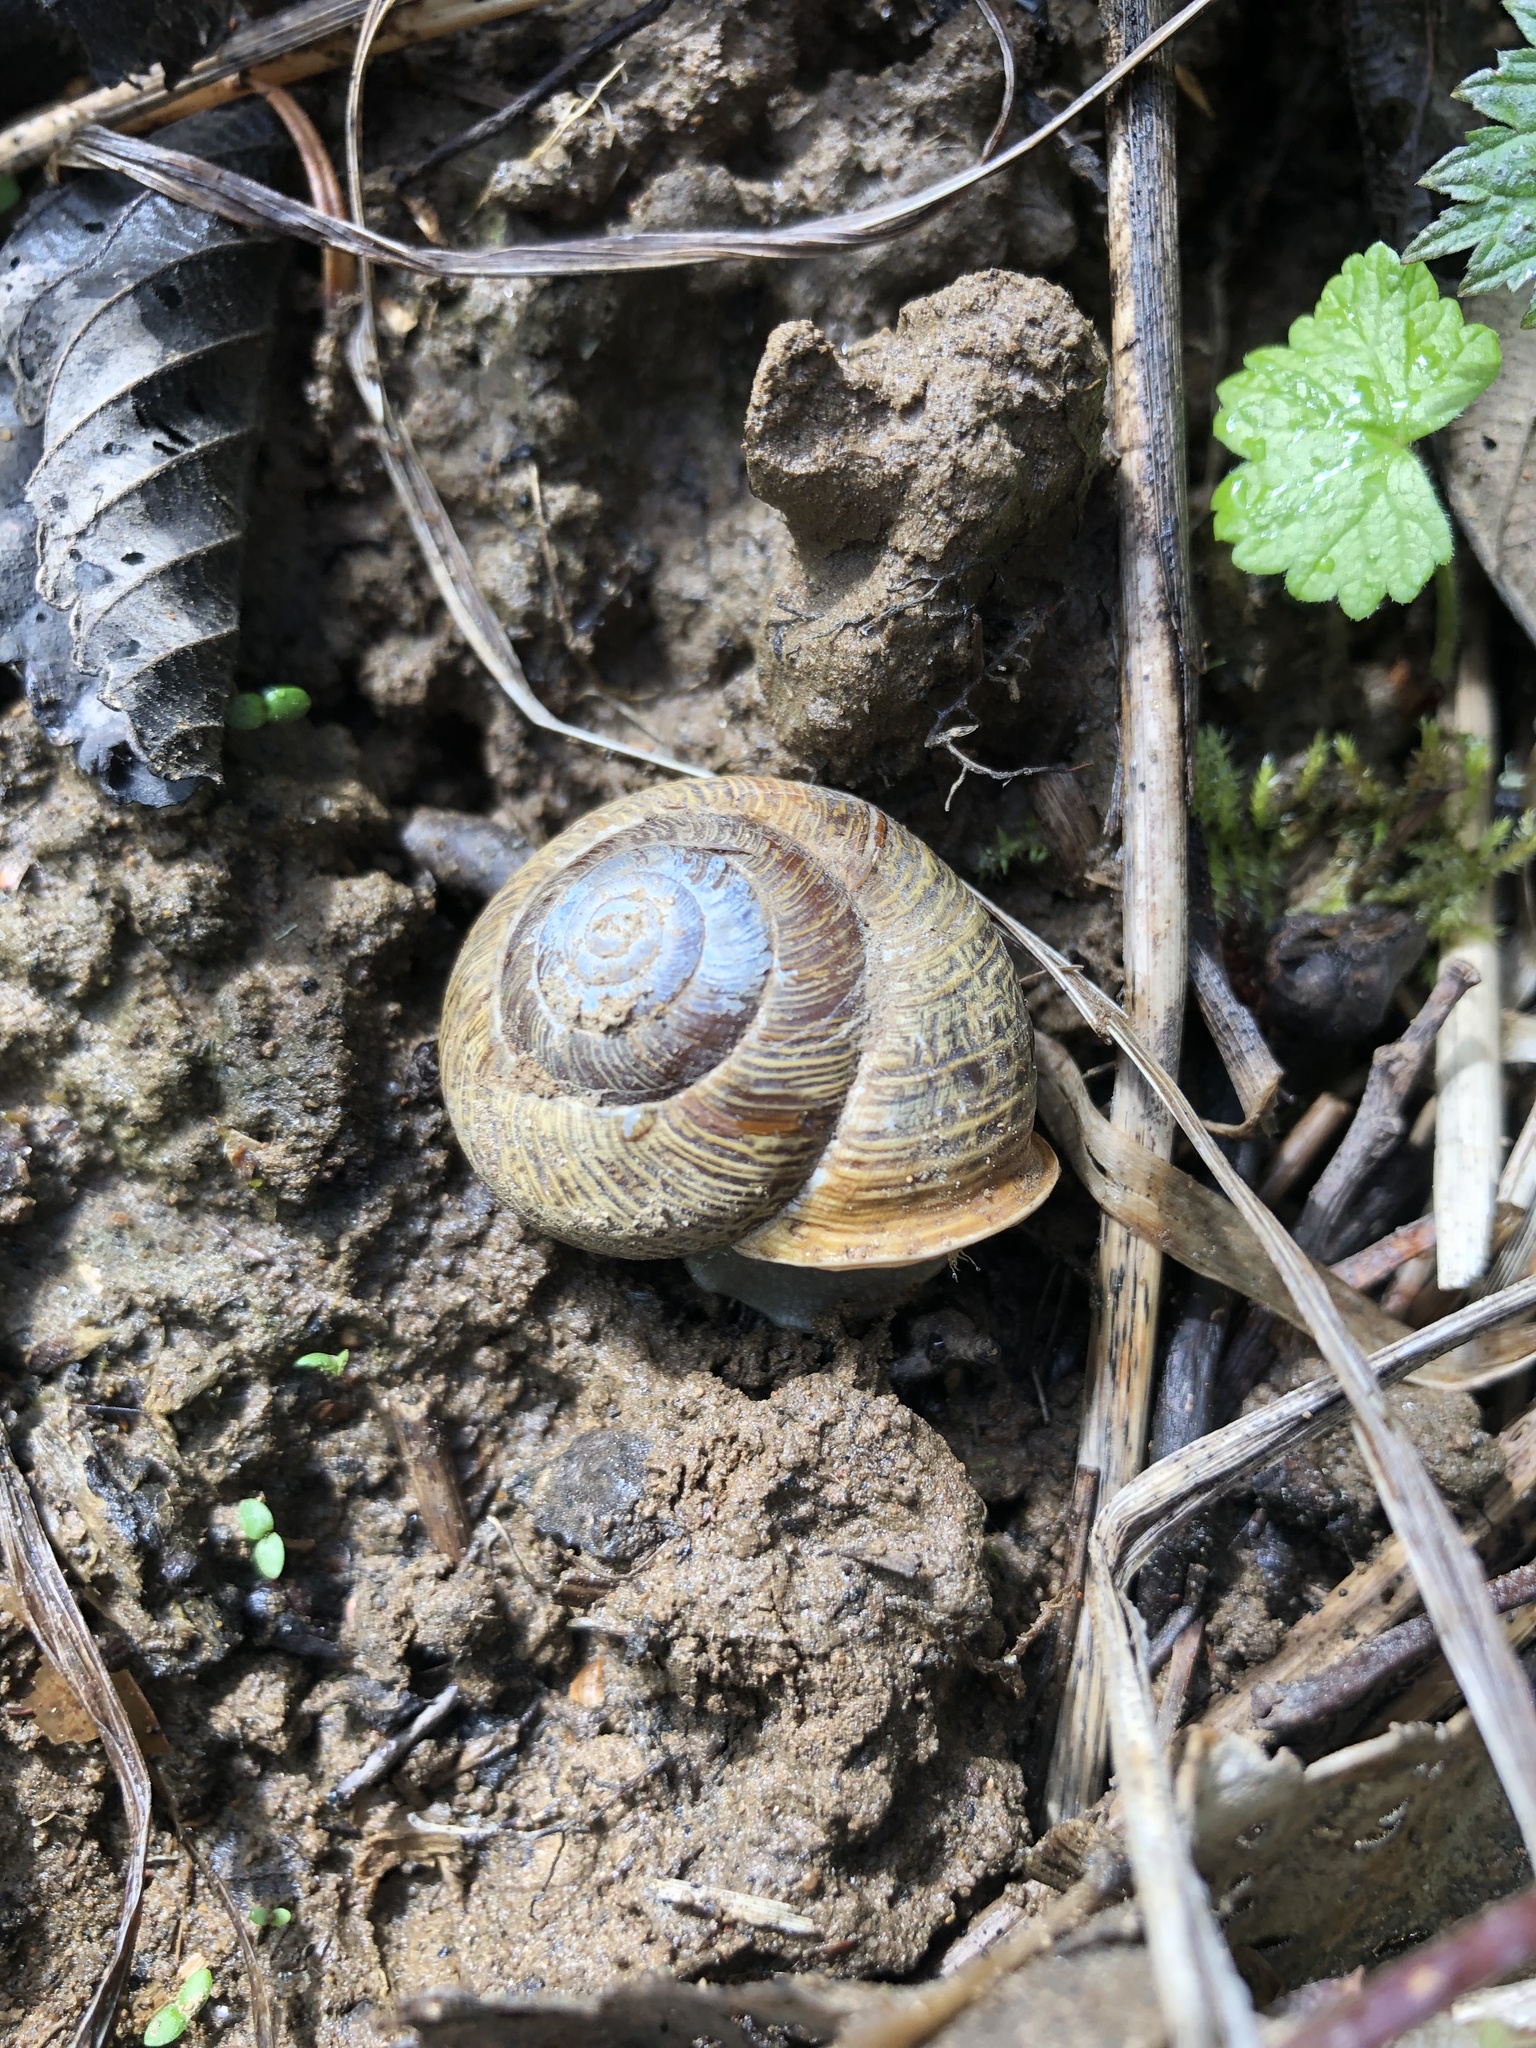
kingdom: Animalia
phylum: Mollusca
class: Gastropoda
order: Stylommatophora
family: Polygyridae
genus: Allogona
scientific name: Allogona townsendiana
